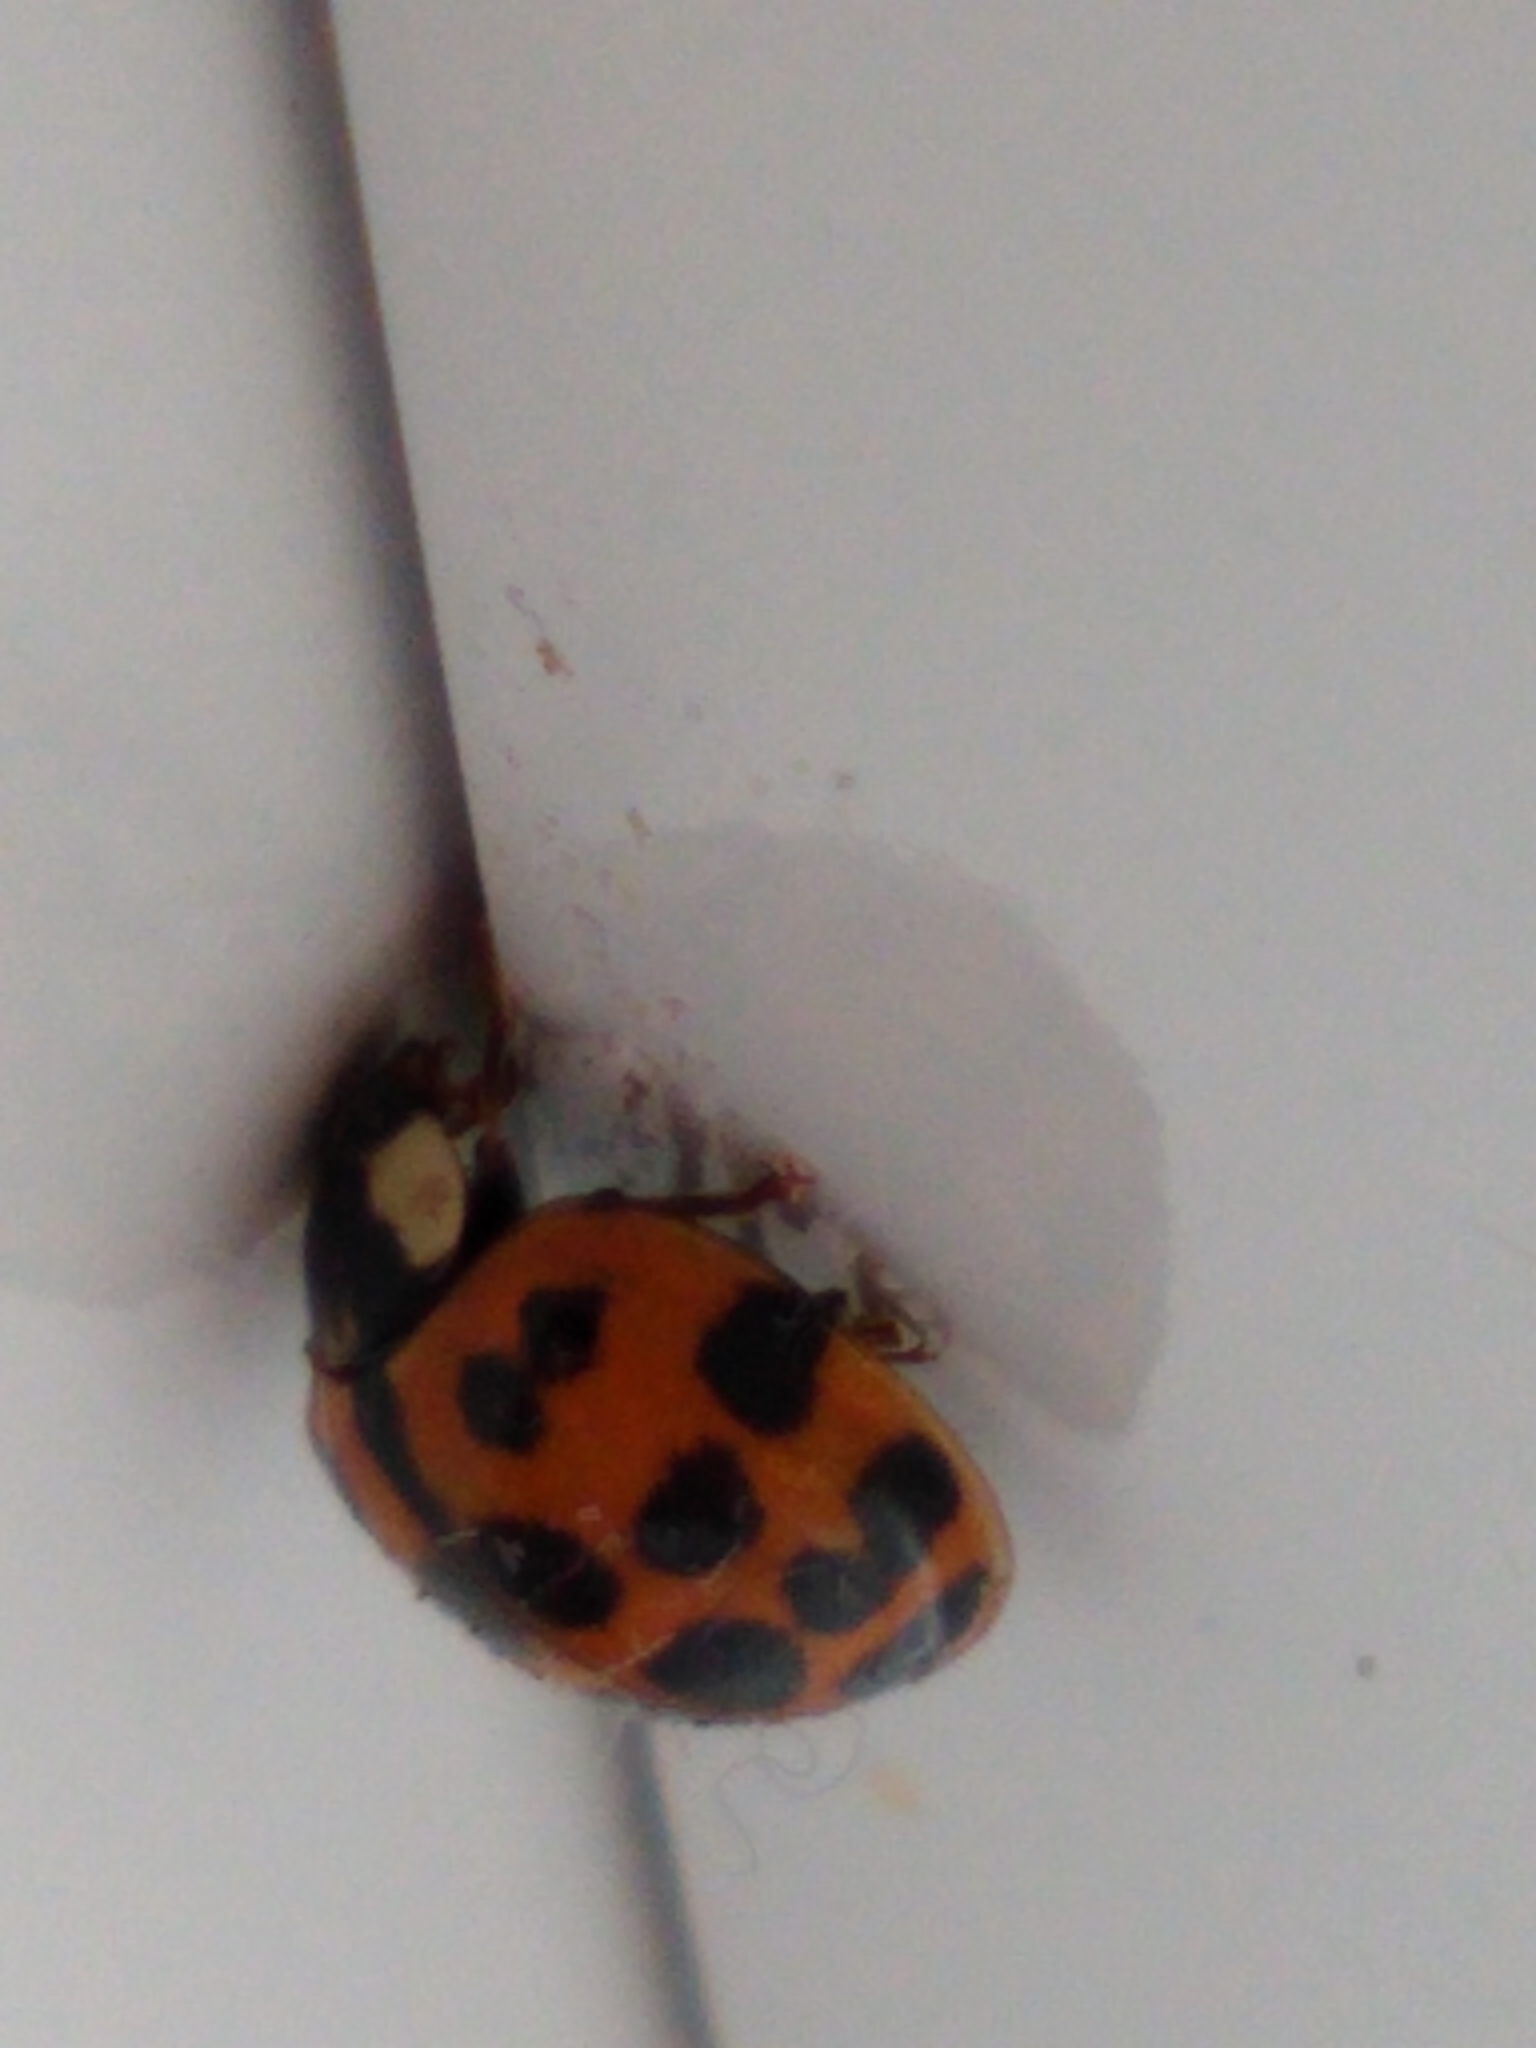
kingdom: Animalia
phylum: Arthropoda
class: Insecta
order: Coleoptera
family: Coccinellidae
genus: Harmonia
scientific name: Harmonia axyridis
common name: Harlequin ladybird
